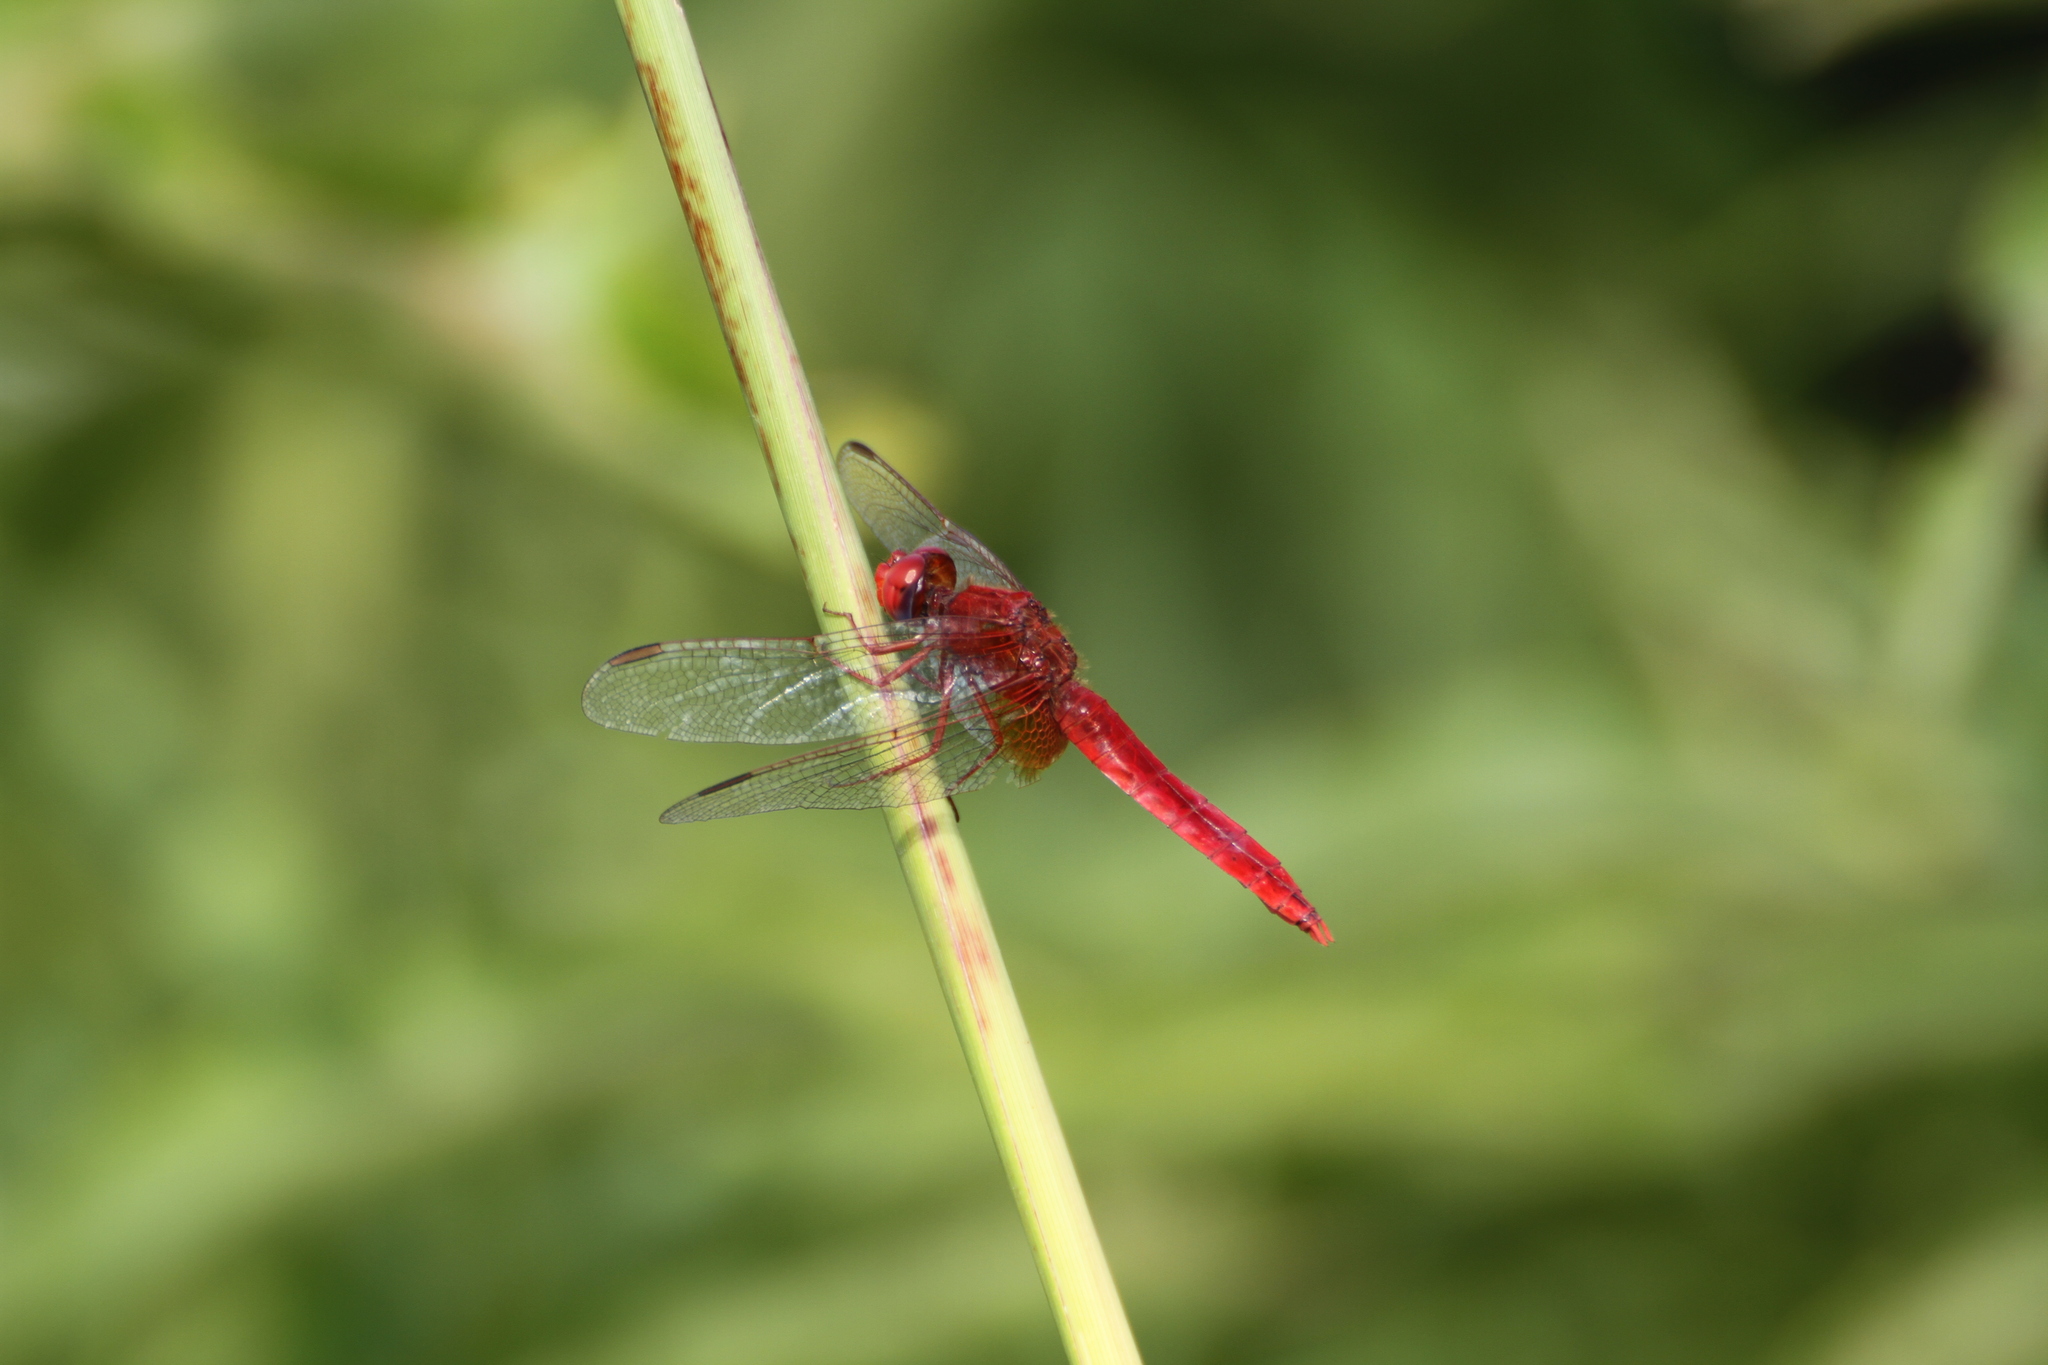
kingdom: Animalia
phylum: Arthropoda
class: Insecta
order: Odonata
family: Libellulidae
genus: Crocothemis
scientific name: Crocothemis erythraea
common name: Scarlet dragonfly
